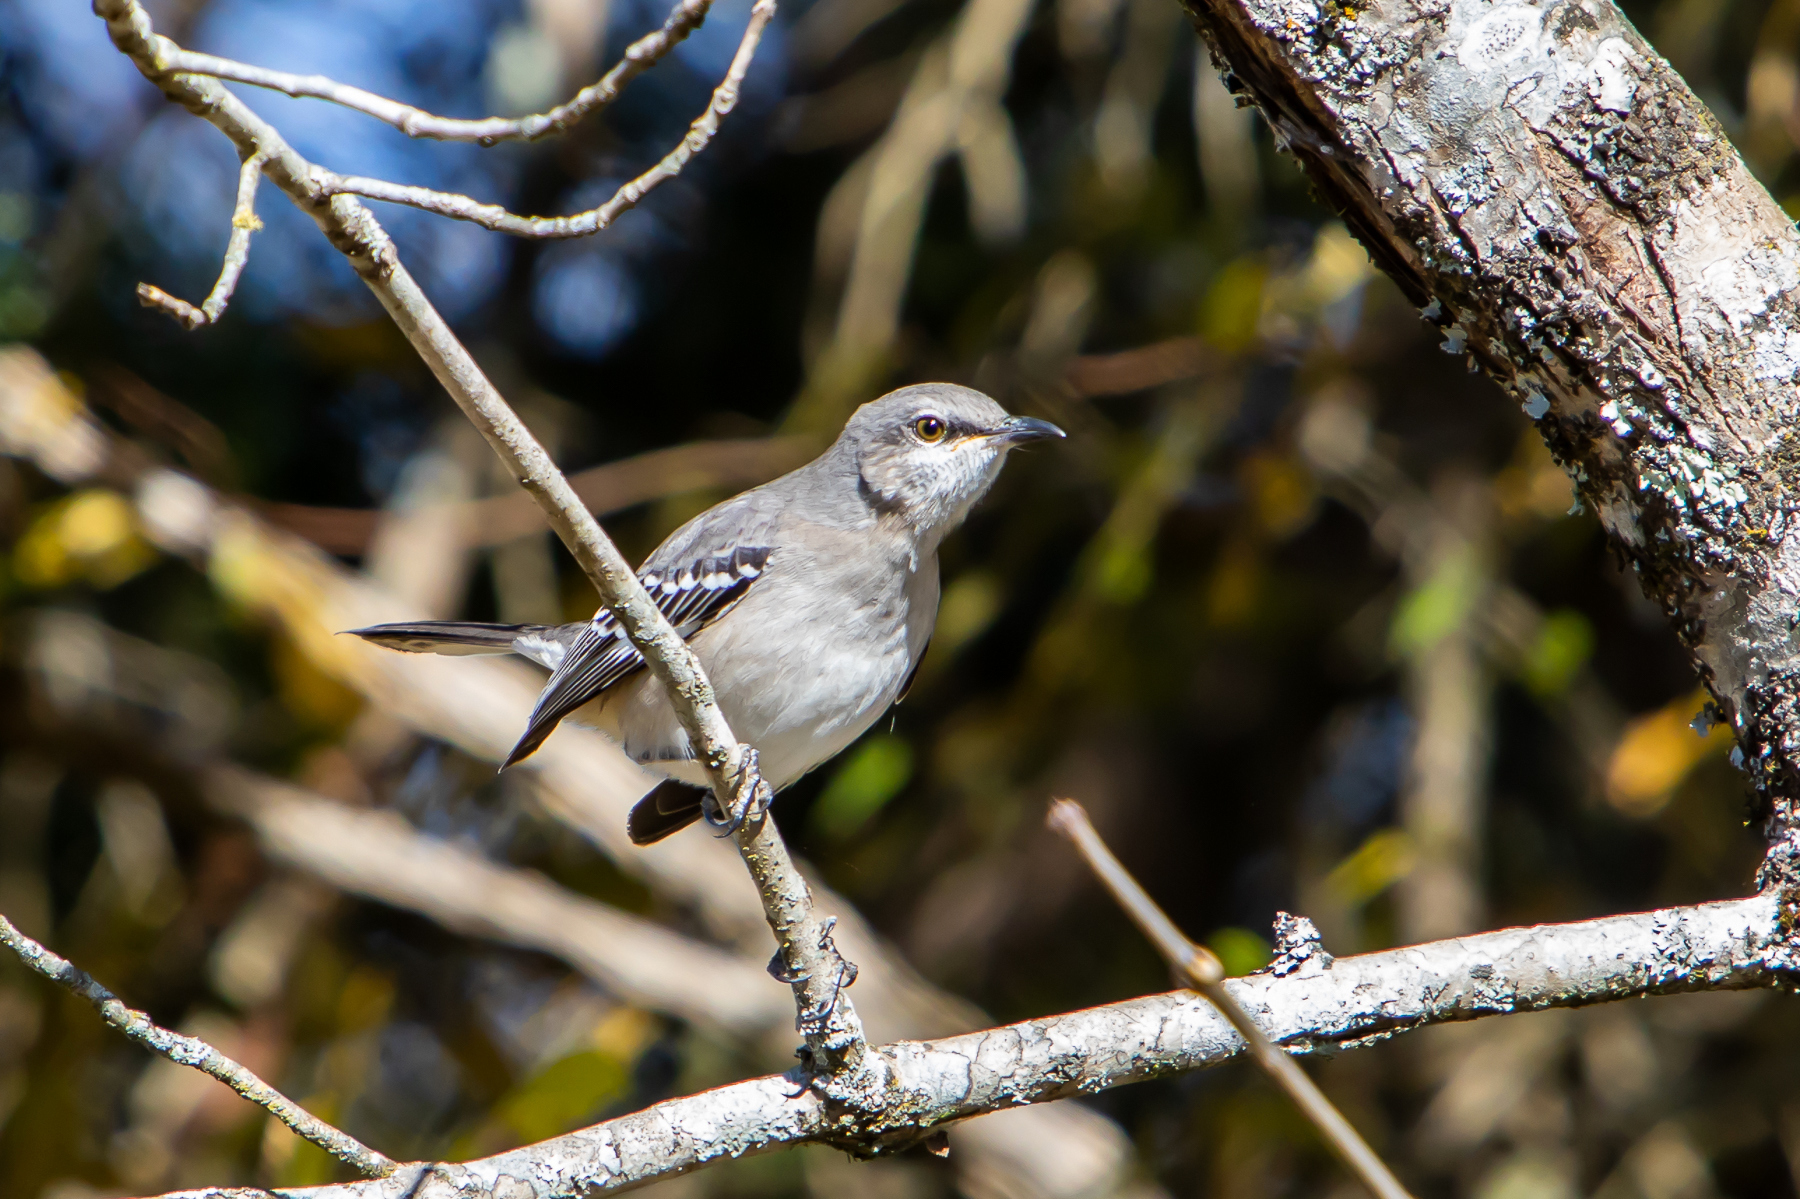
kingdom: Animalia
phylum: Chordata
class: Aves
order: Passeriformes
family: Mimidae
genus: Mimus
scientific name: Mimus polyglottos
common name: Northern mockingbird
